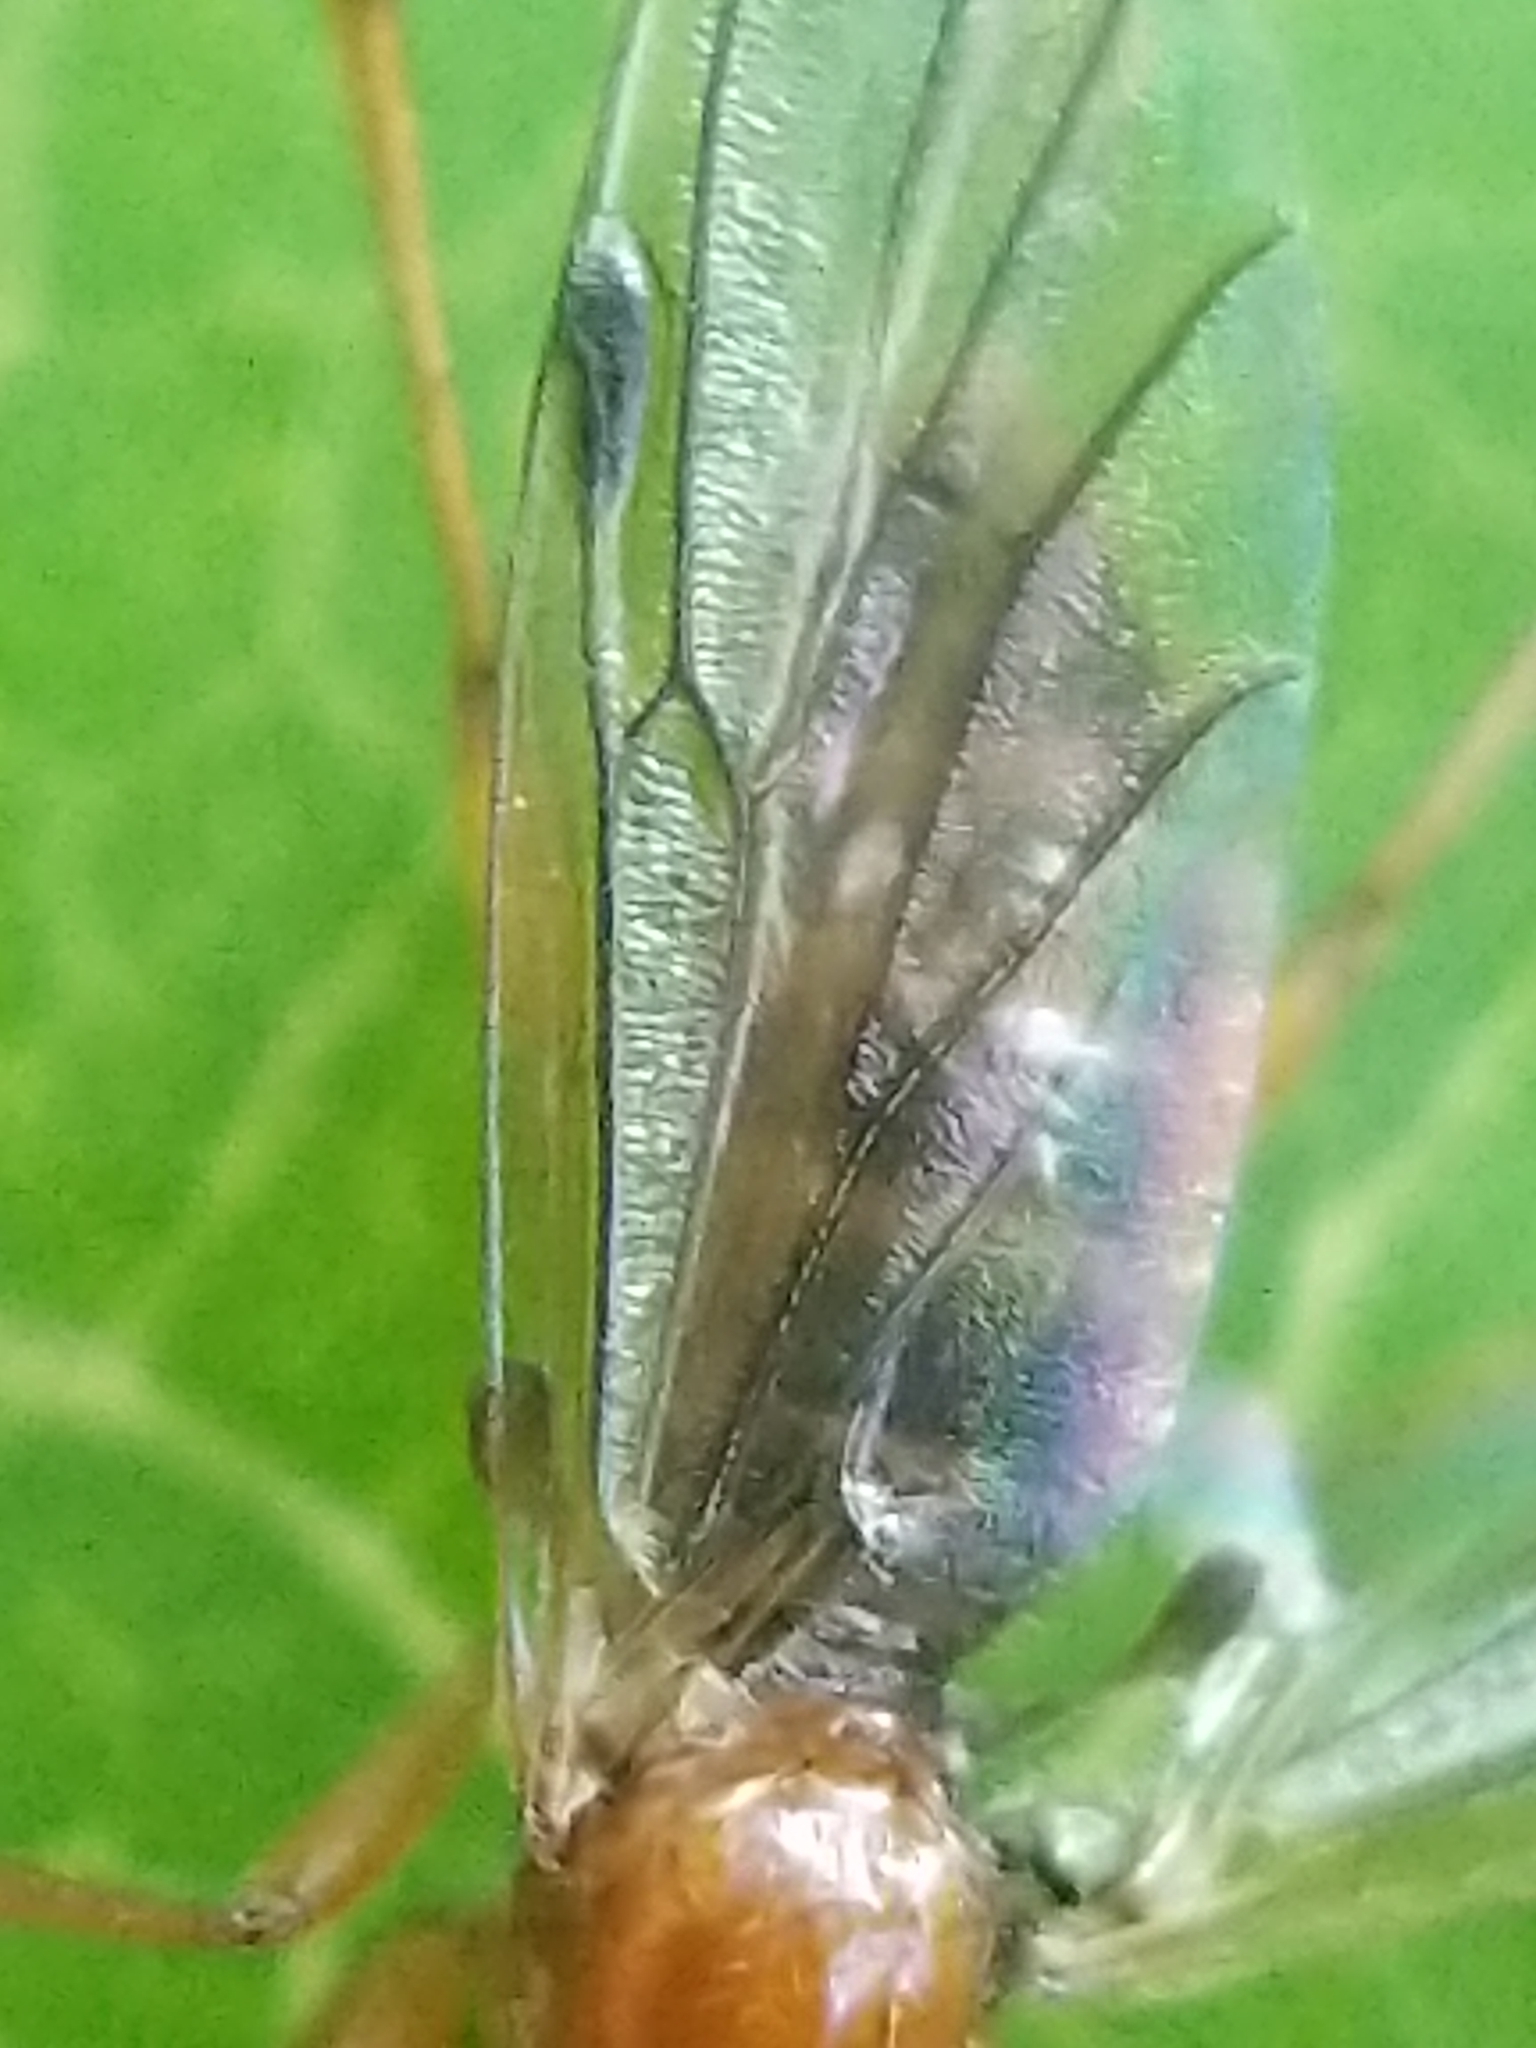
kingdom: Animalia
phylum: Arthropoda
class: Insecta
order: Diptera
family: Bibionidae
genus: Bibio
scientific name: Bibio townesi
